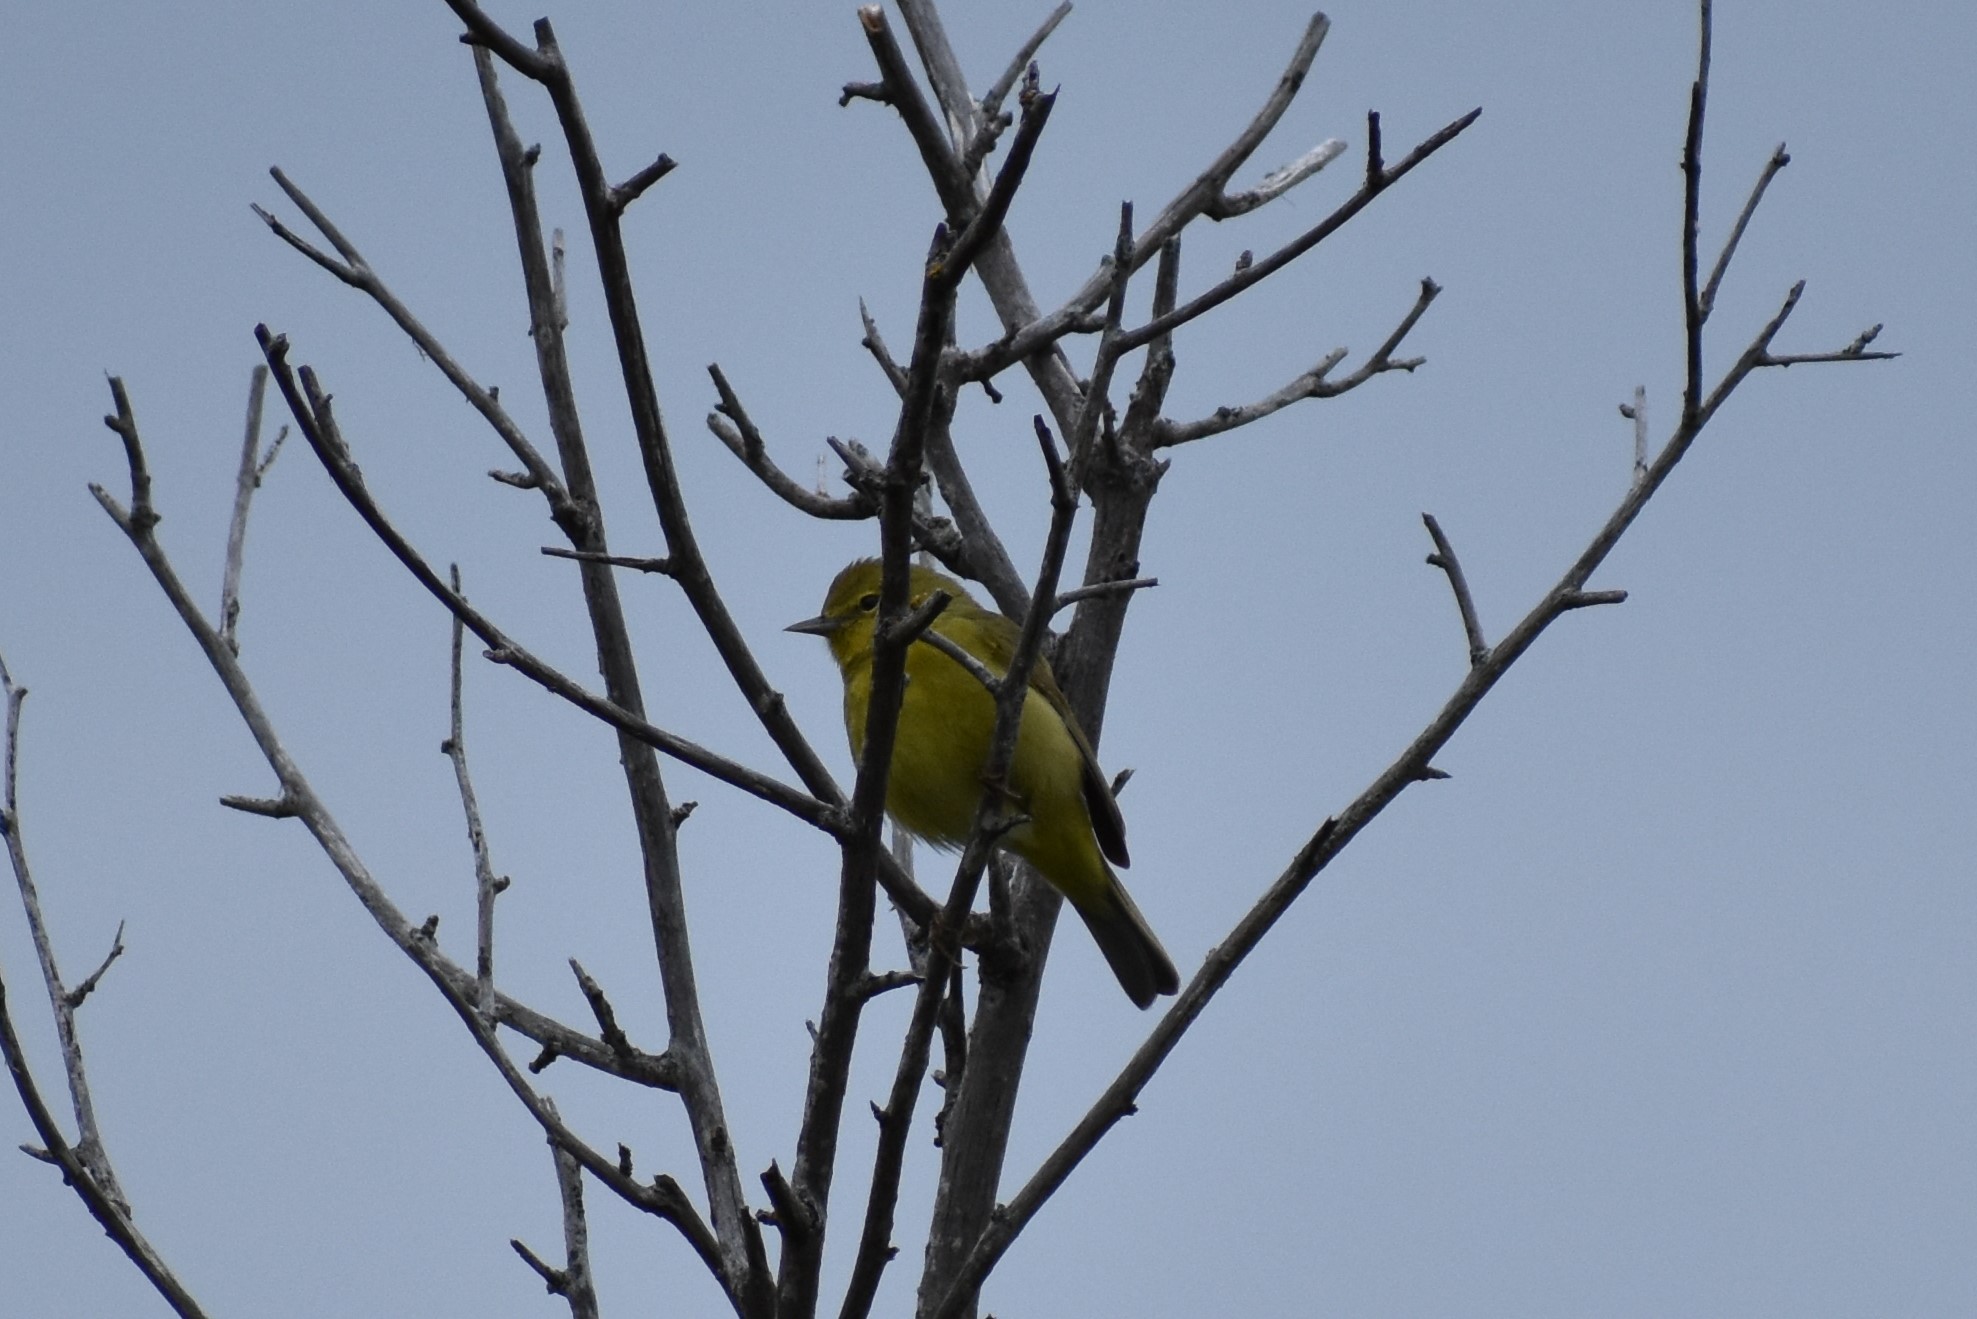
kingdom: Animalia
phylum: Chordata
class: Aves
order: Passeriformes
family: Parulidae
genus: Leiothlypis
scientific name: Leiothlypis celata
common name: Orange-crowned warbler
